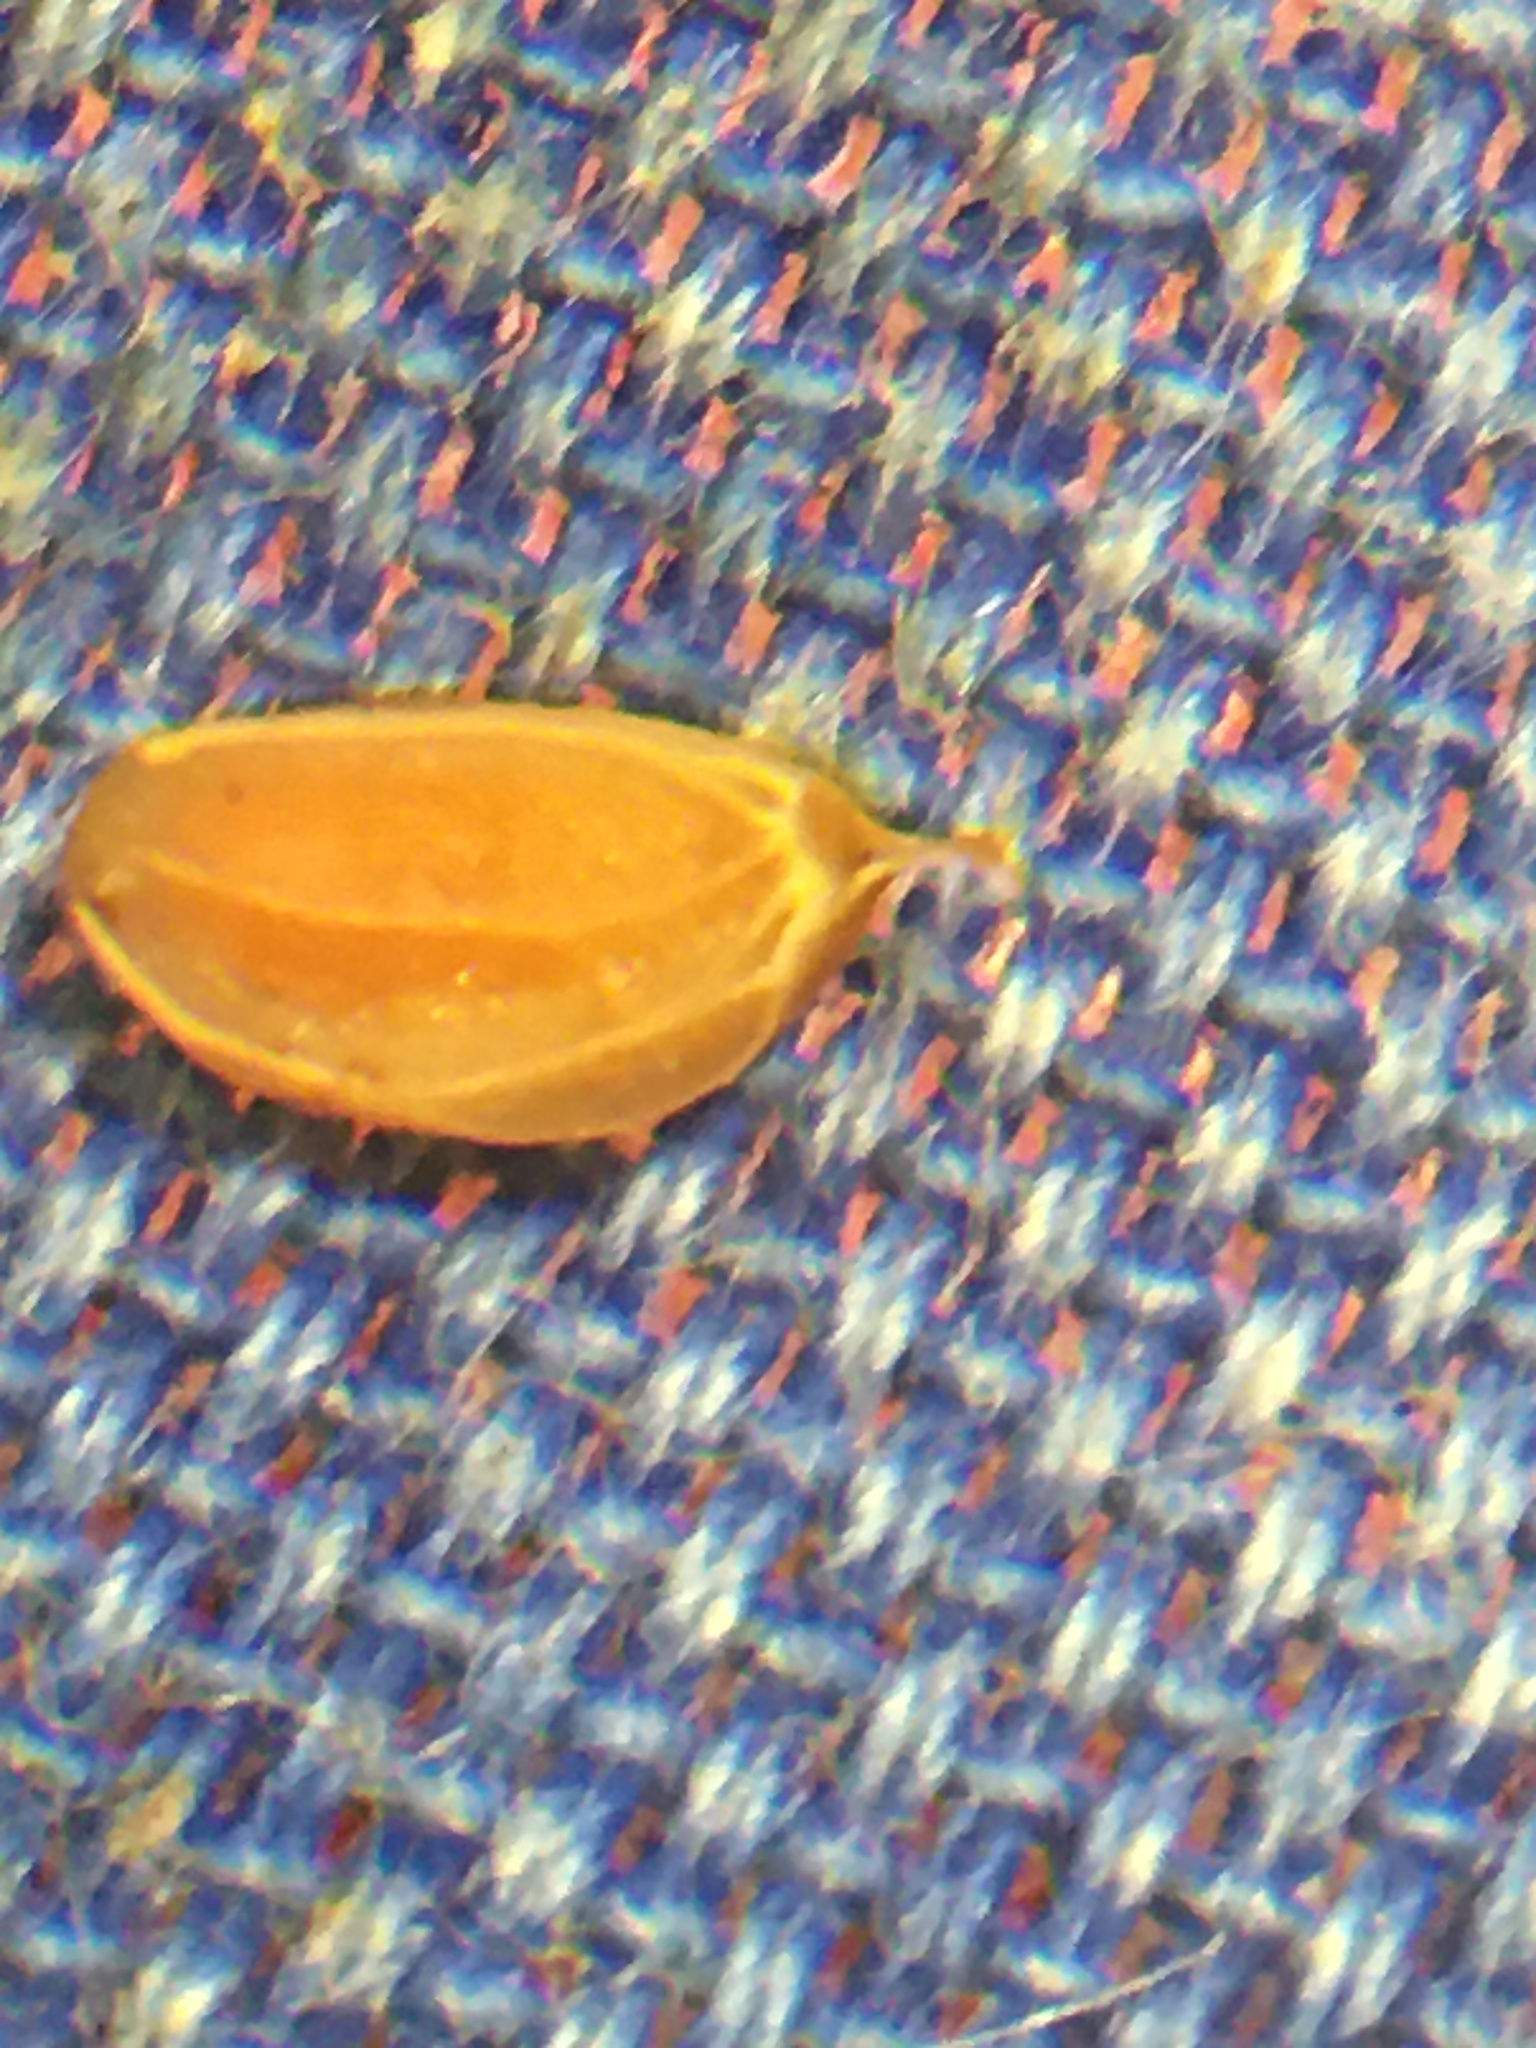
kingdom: Plantae
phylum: Tracheophyta
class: Magnoliopsida
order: Aquifoliales
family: Aquifoliaceae
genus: Ilex
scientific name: Ilex verticillata
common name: Virginia winterberry
